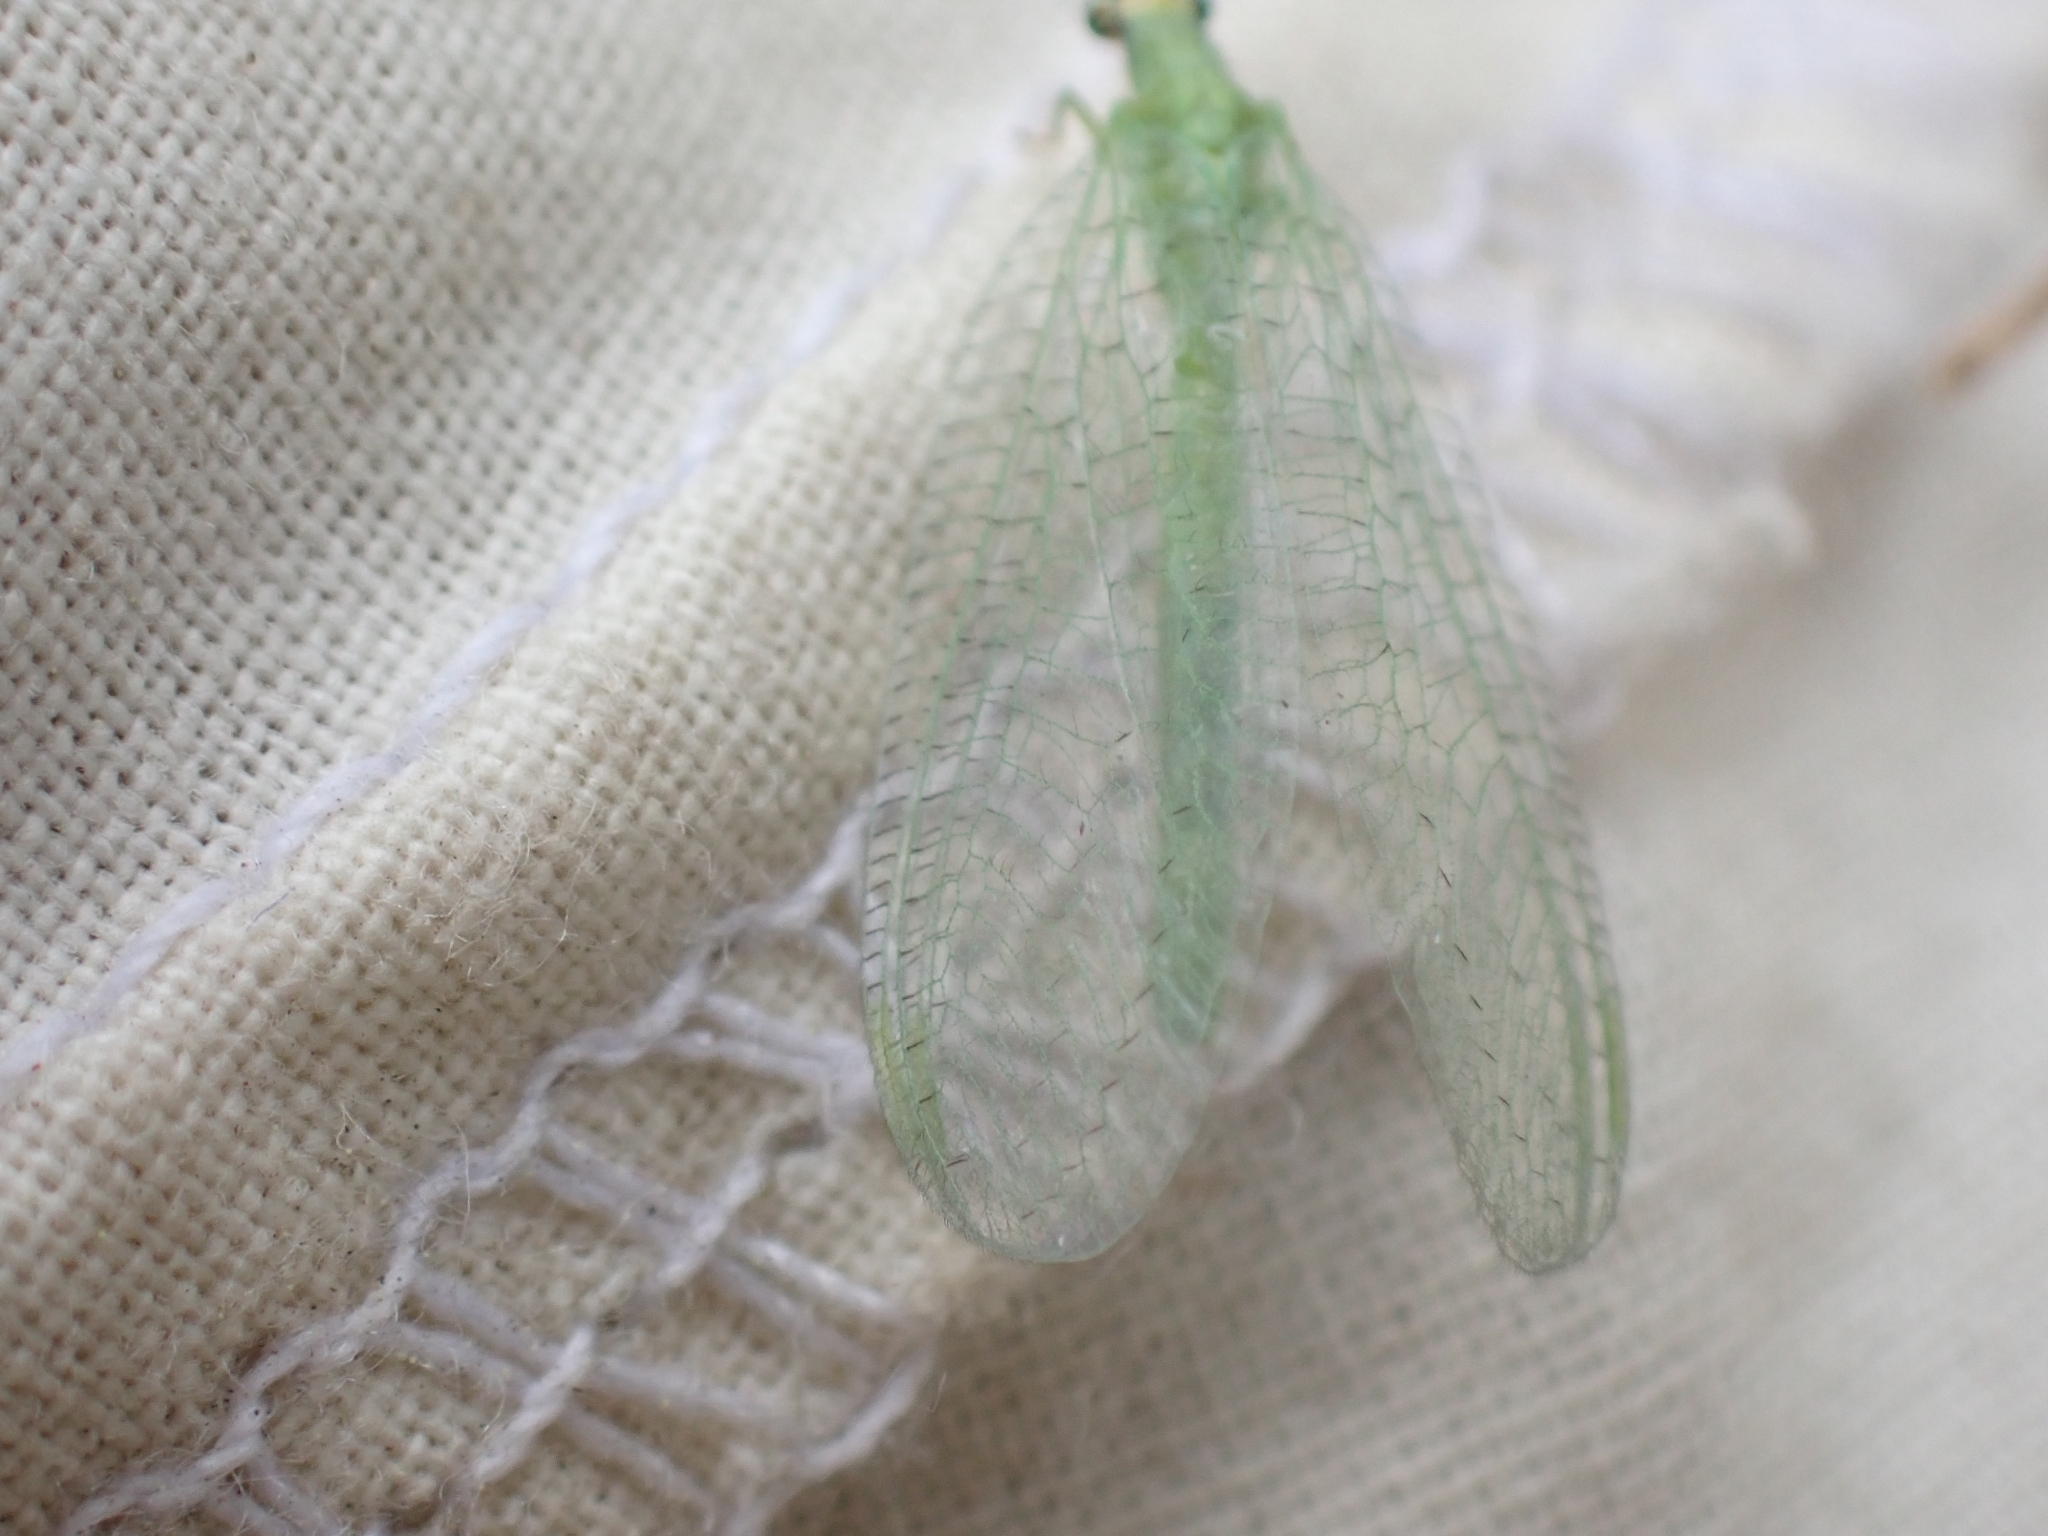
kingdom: Animalia
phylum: Arthropoda
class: Insecta
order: Neuroptera
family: Chrysopidae
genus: Chrysopa
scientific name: Chrysopa oculata
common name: Golden-eyed lacewing
